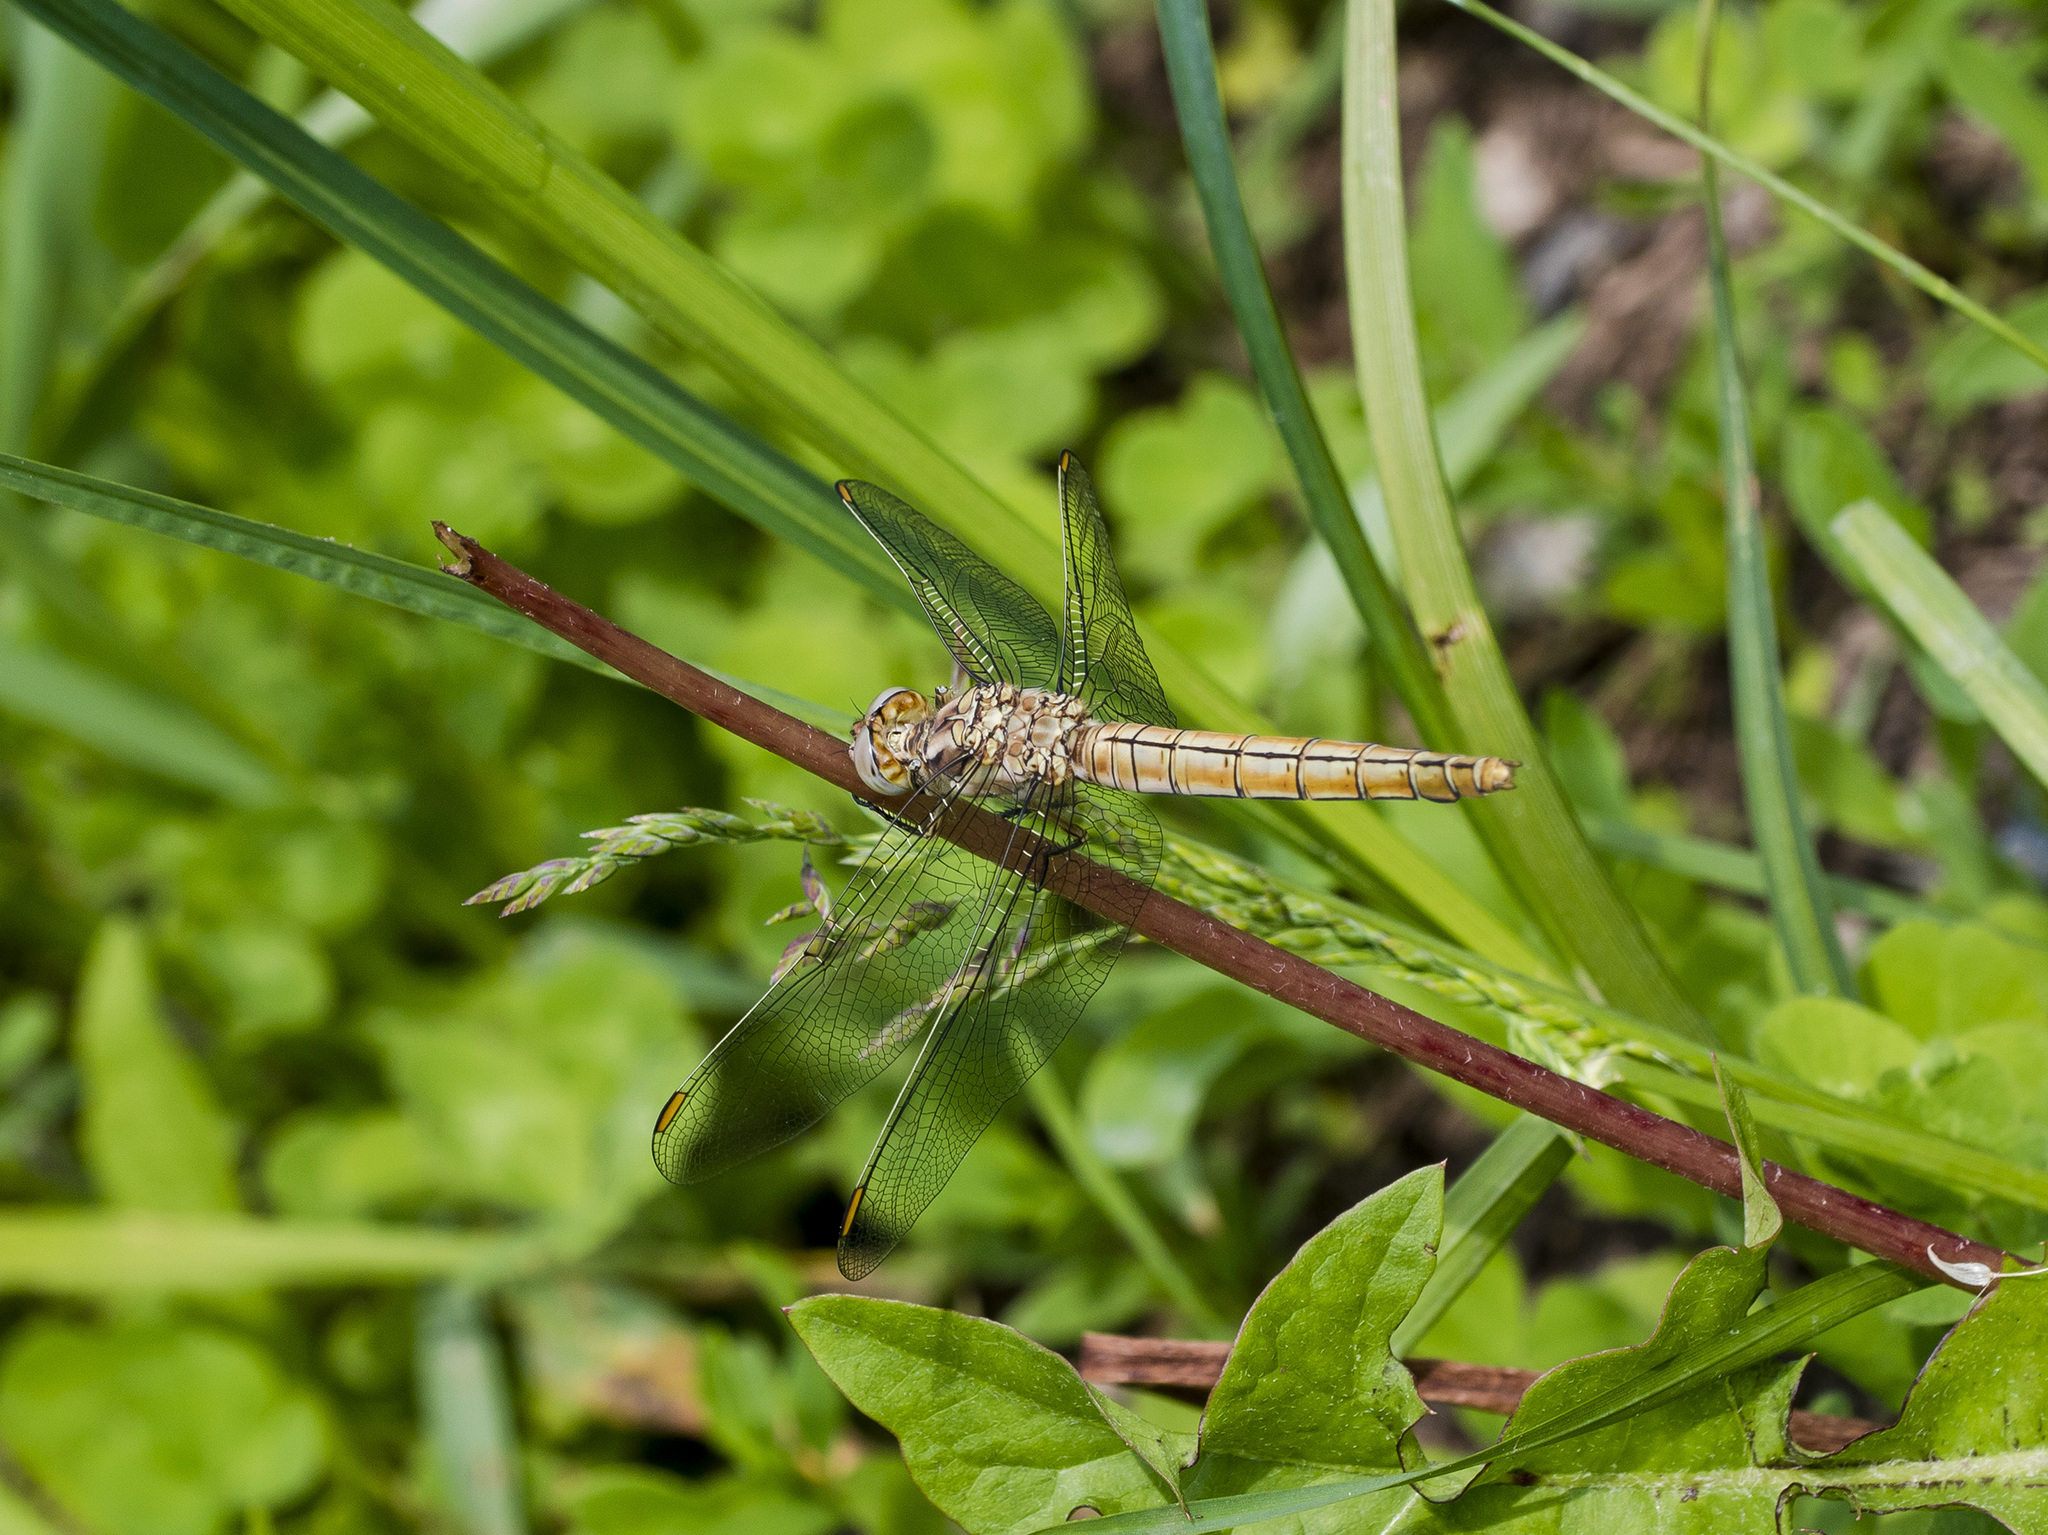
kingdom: Animalia
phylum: Arthropoda
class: Insecta
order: Odonata
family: Libellulidae
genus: Orthetrum
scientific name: Orthetrum brunneum
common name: Southern skimmer
